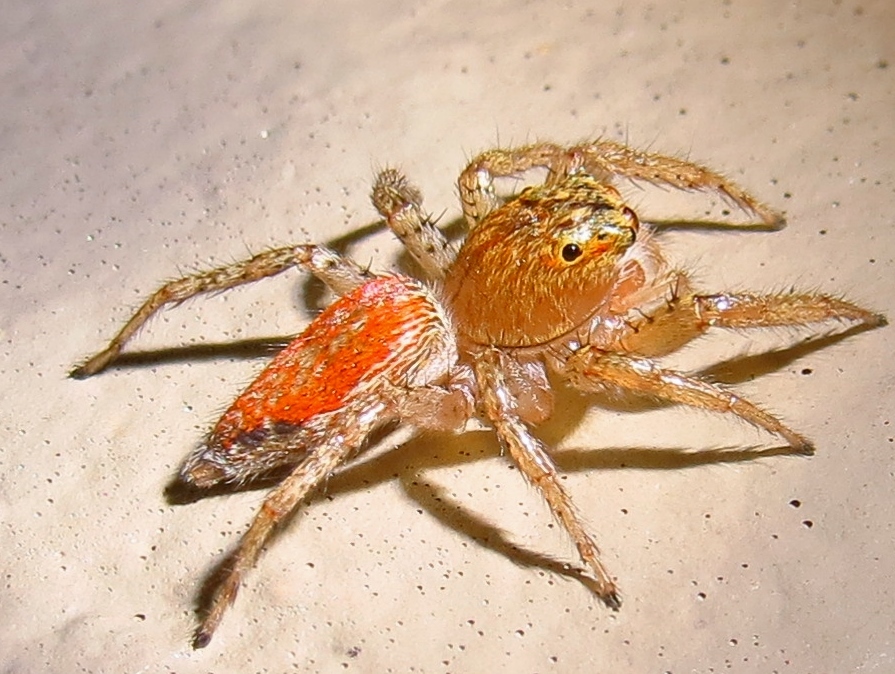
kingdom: Animalia
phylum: Arthropoda
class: Arachnida
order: Araneae
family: Salticidae
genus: Maevia
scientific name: Maevia inclemens
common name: Dimorphic jumper
